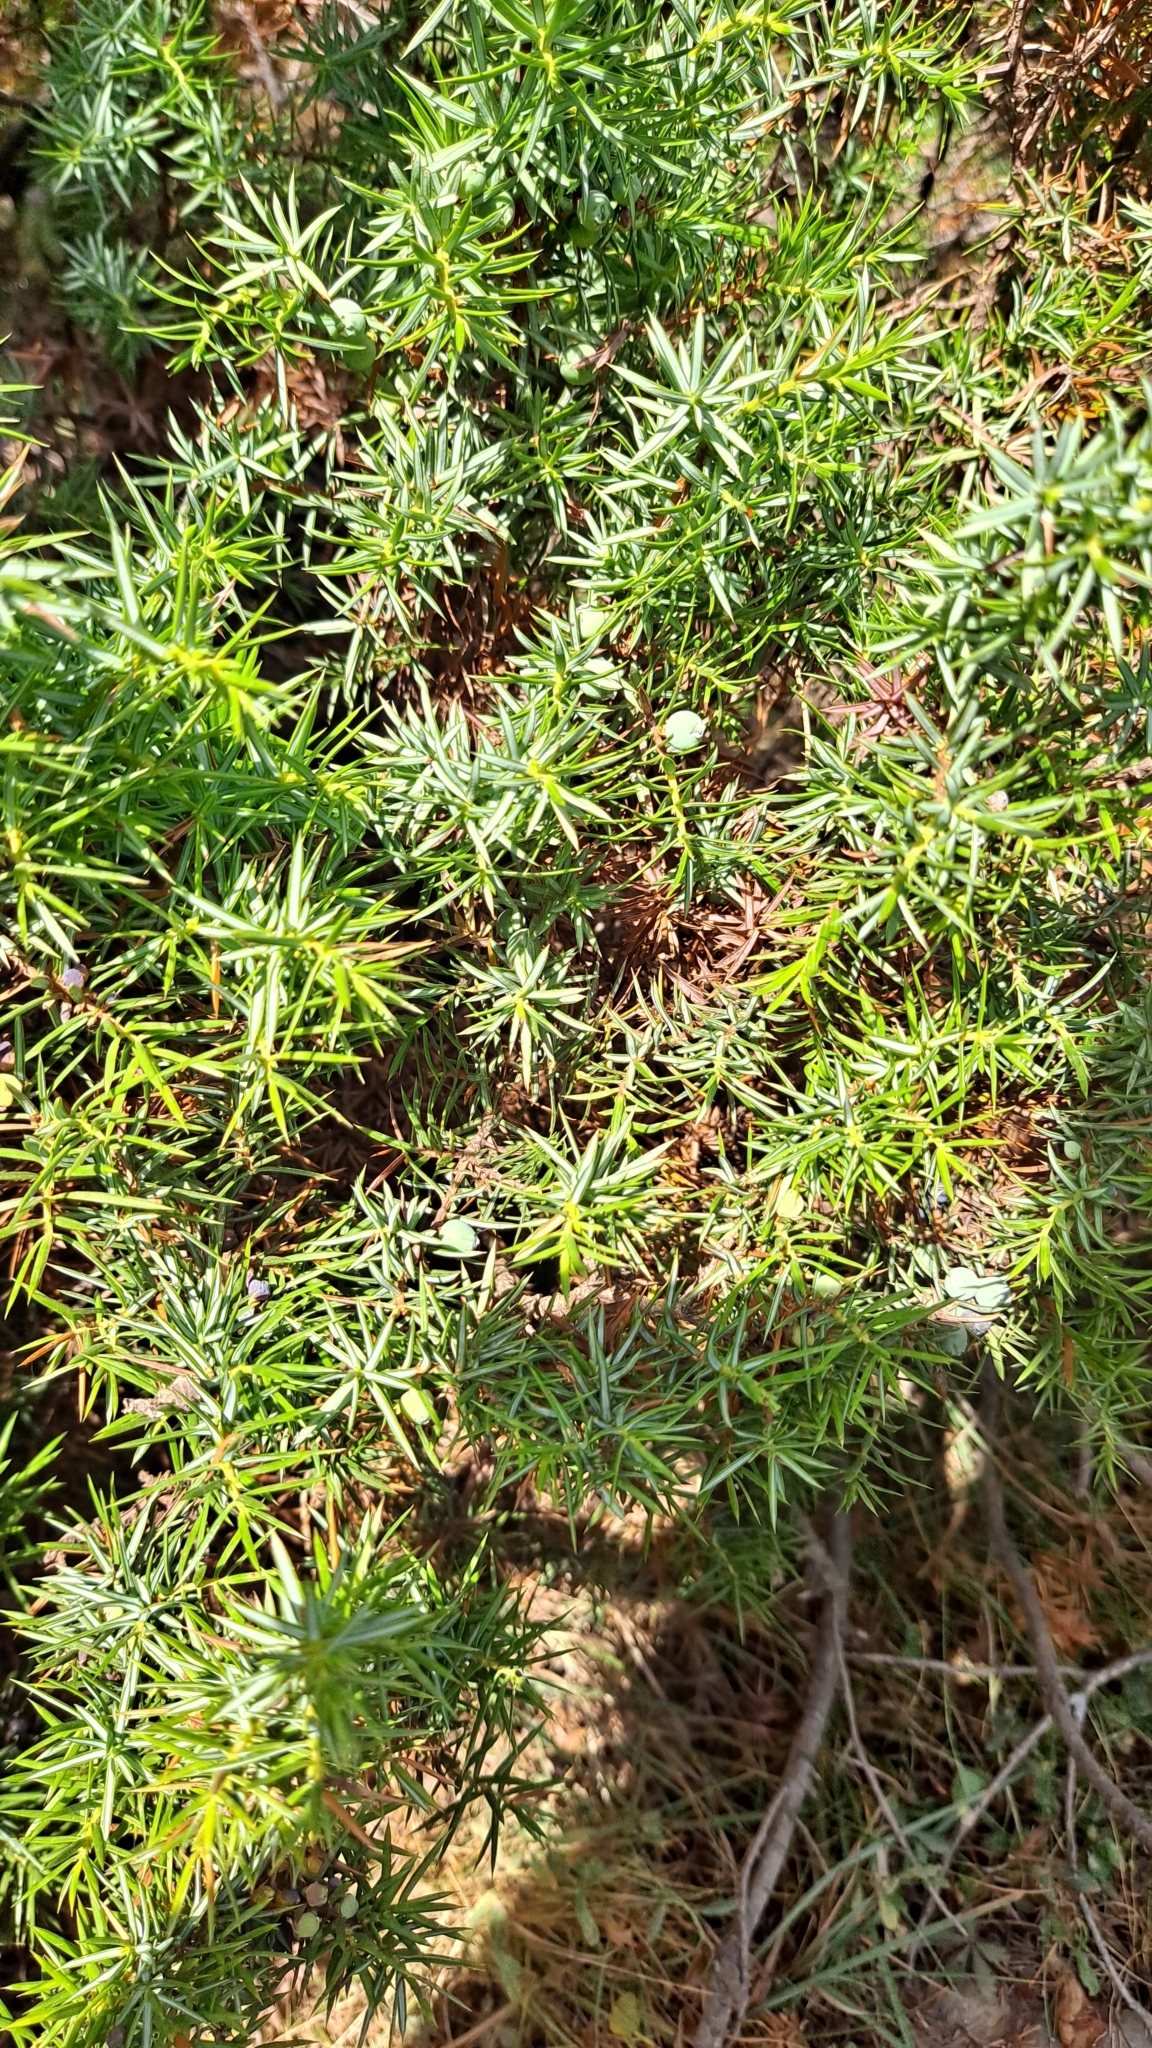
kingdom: Plantae
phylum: Tracheophyta
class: Pinopsida
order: Pinales
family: Cupressaceae
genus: Juniperus
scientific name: Juniperus communis
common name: Common juniper
